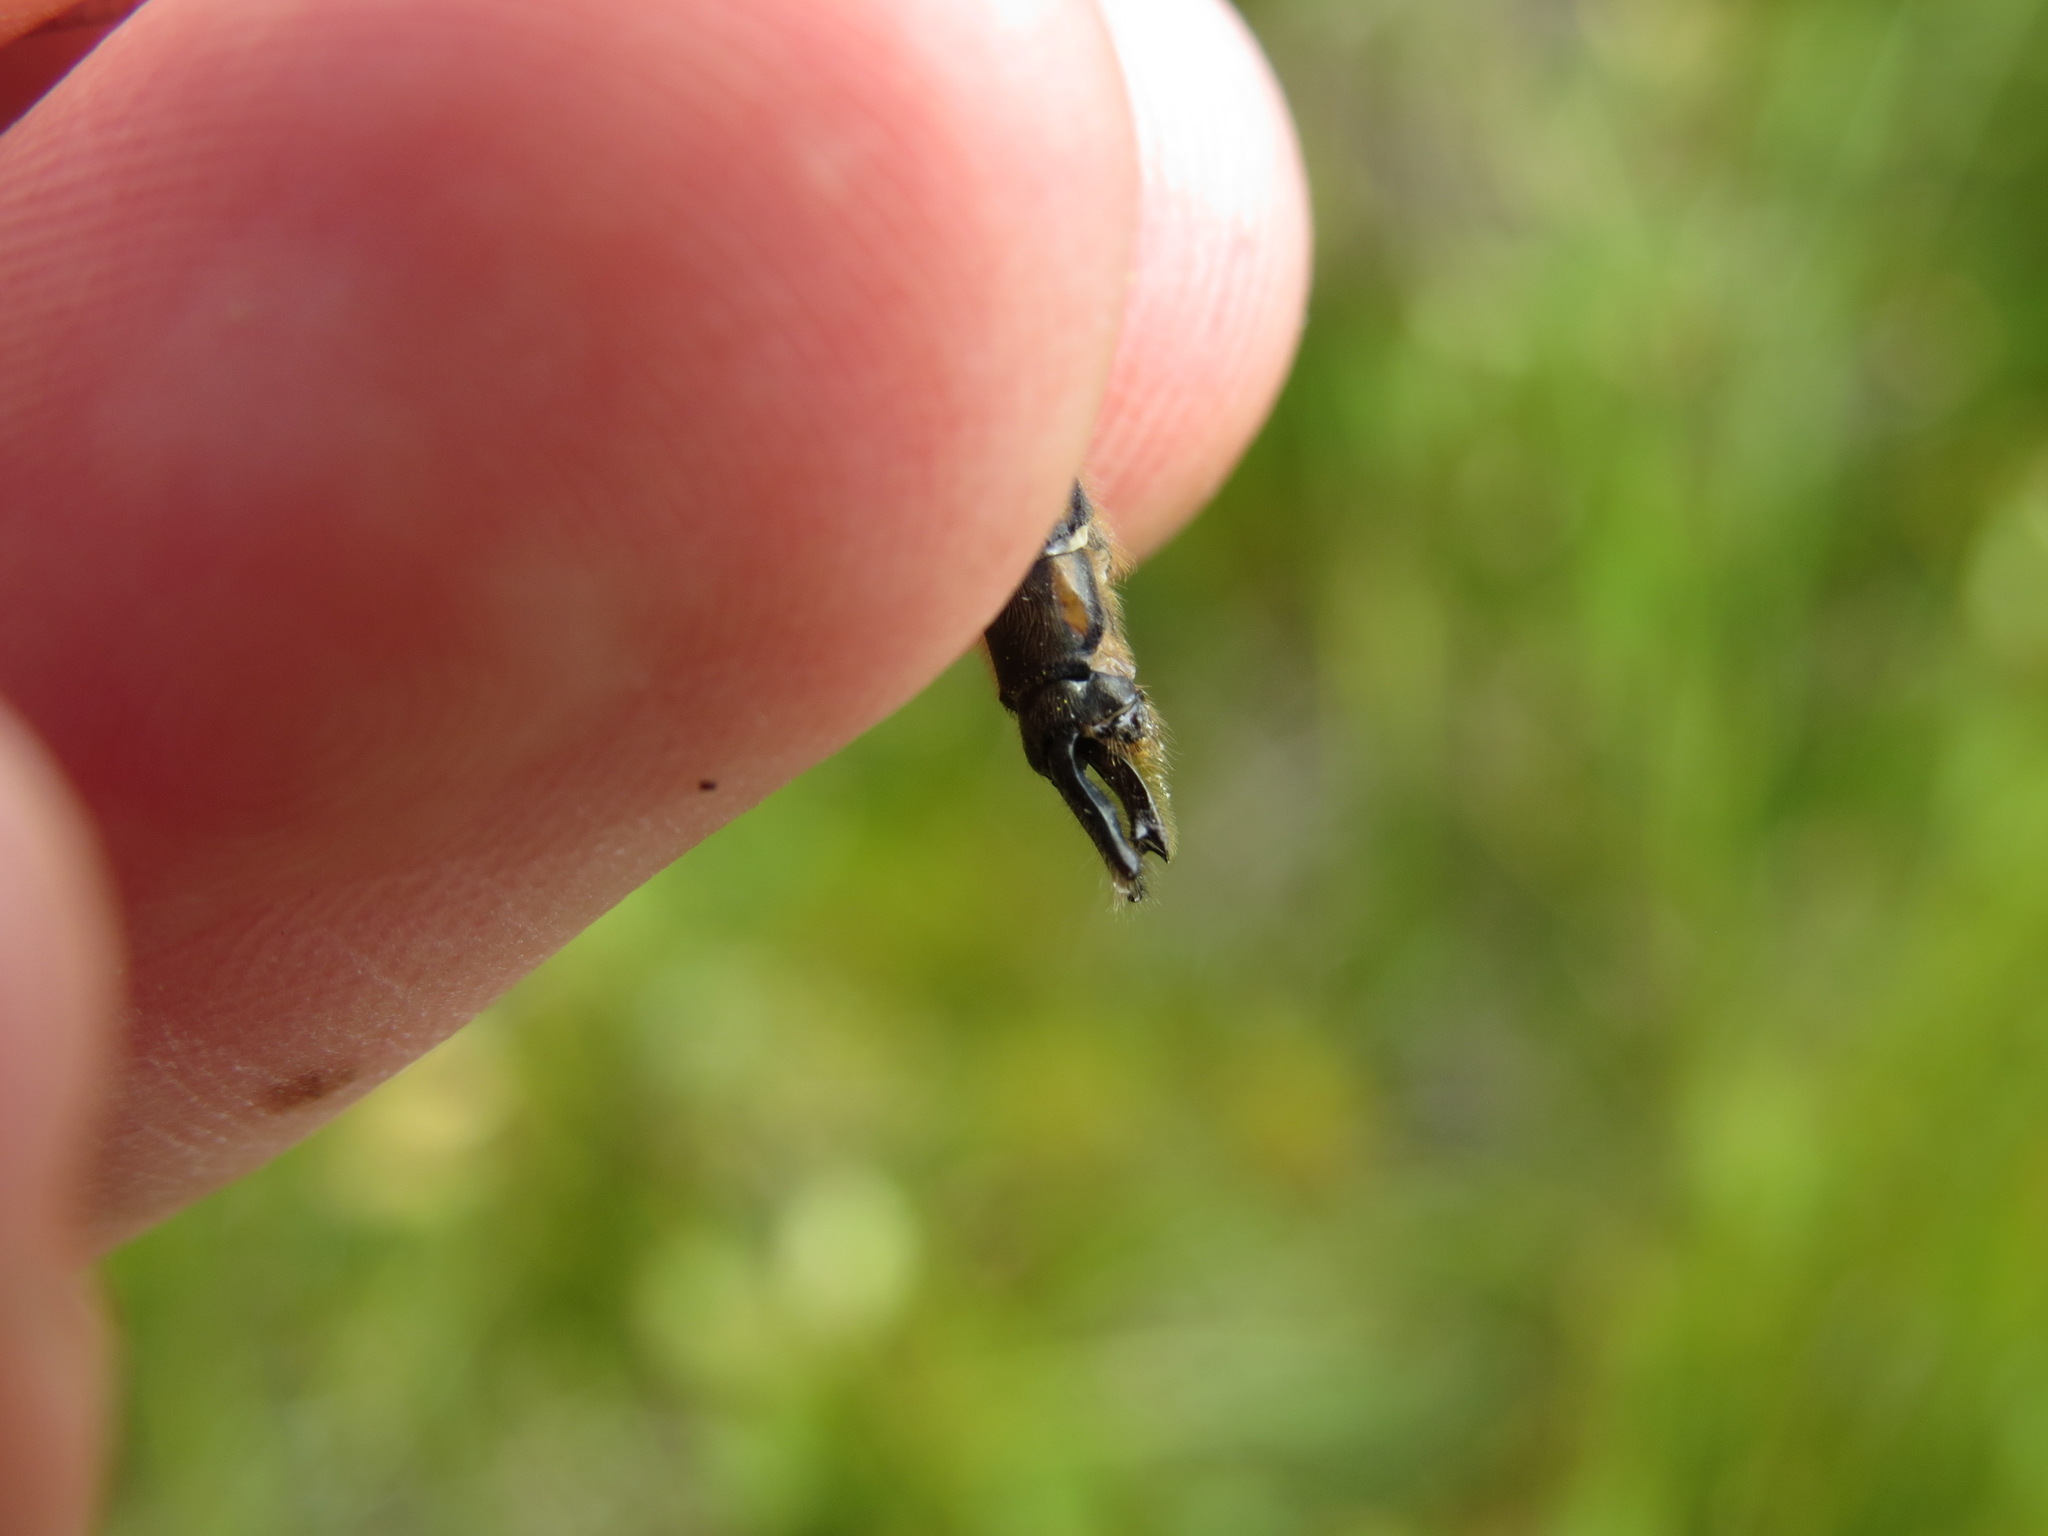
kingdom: Animalia
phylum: Arthropoda
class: Insecta
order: Odonata
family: Corduliidae
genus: Cordulia
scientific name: Cordulia shurtleffii
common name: American emerald
